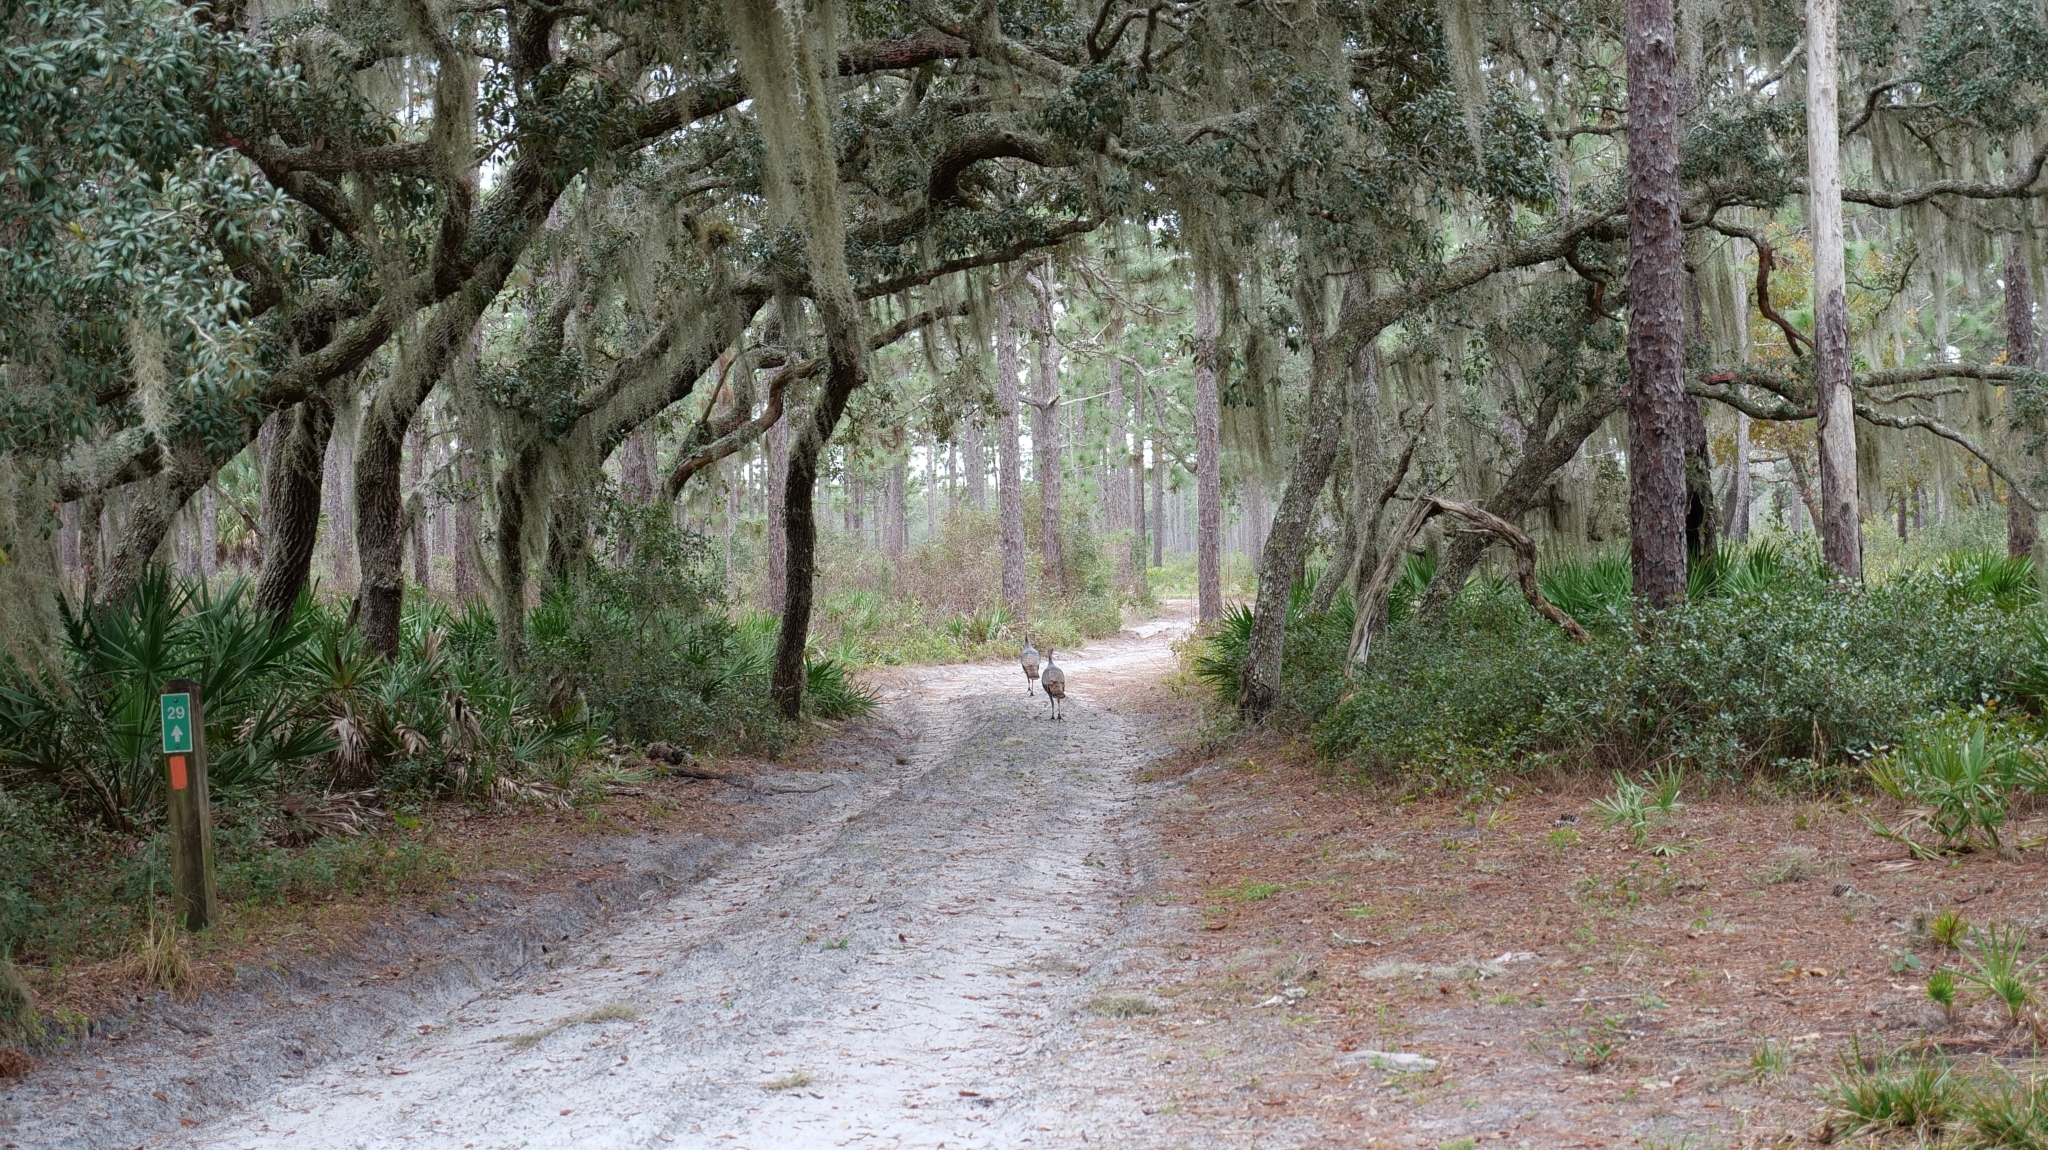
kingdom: Animalia
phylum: Chordata
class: Aves
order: Galliformes
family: Phasianidae
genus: Meleagris
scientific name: Meleagris gallopavo
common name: Wild turkey
